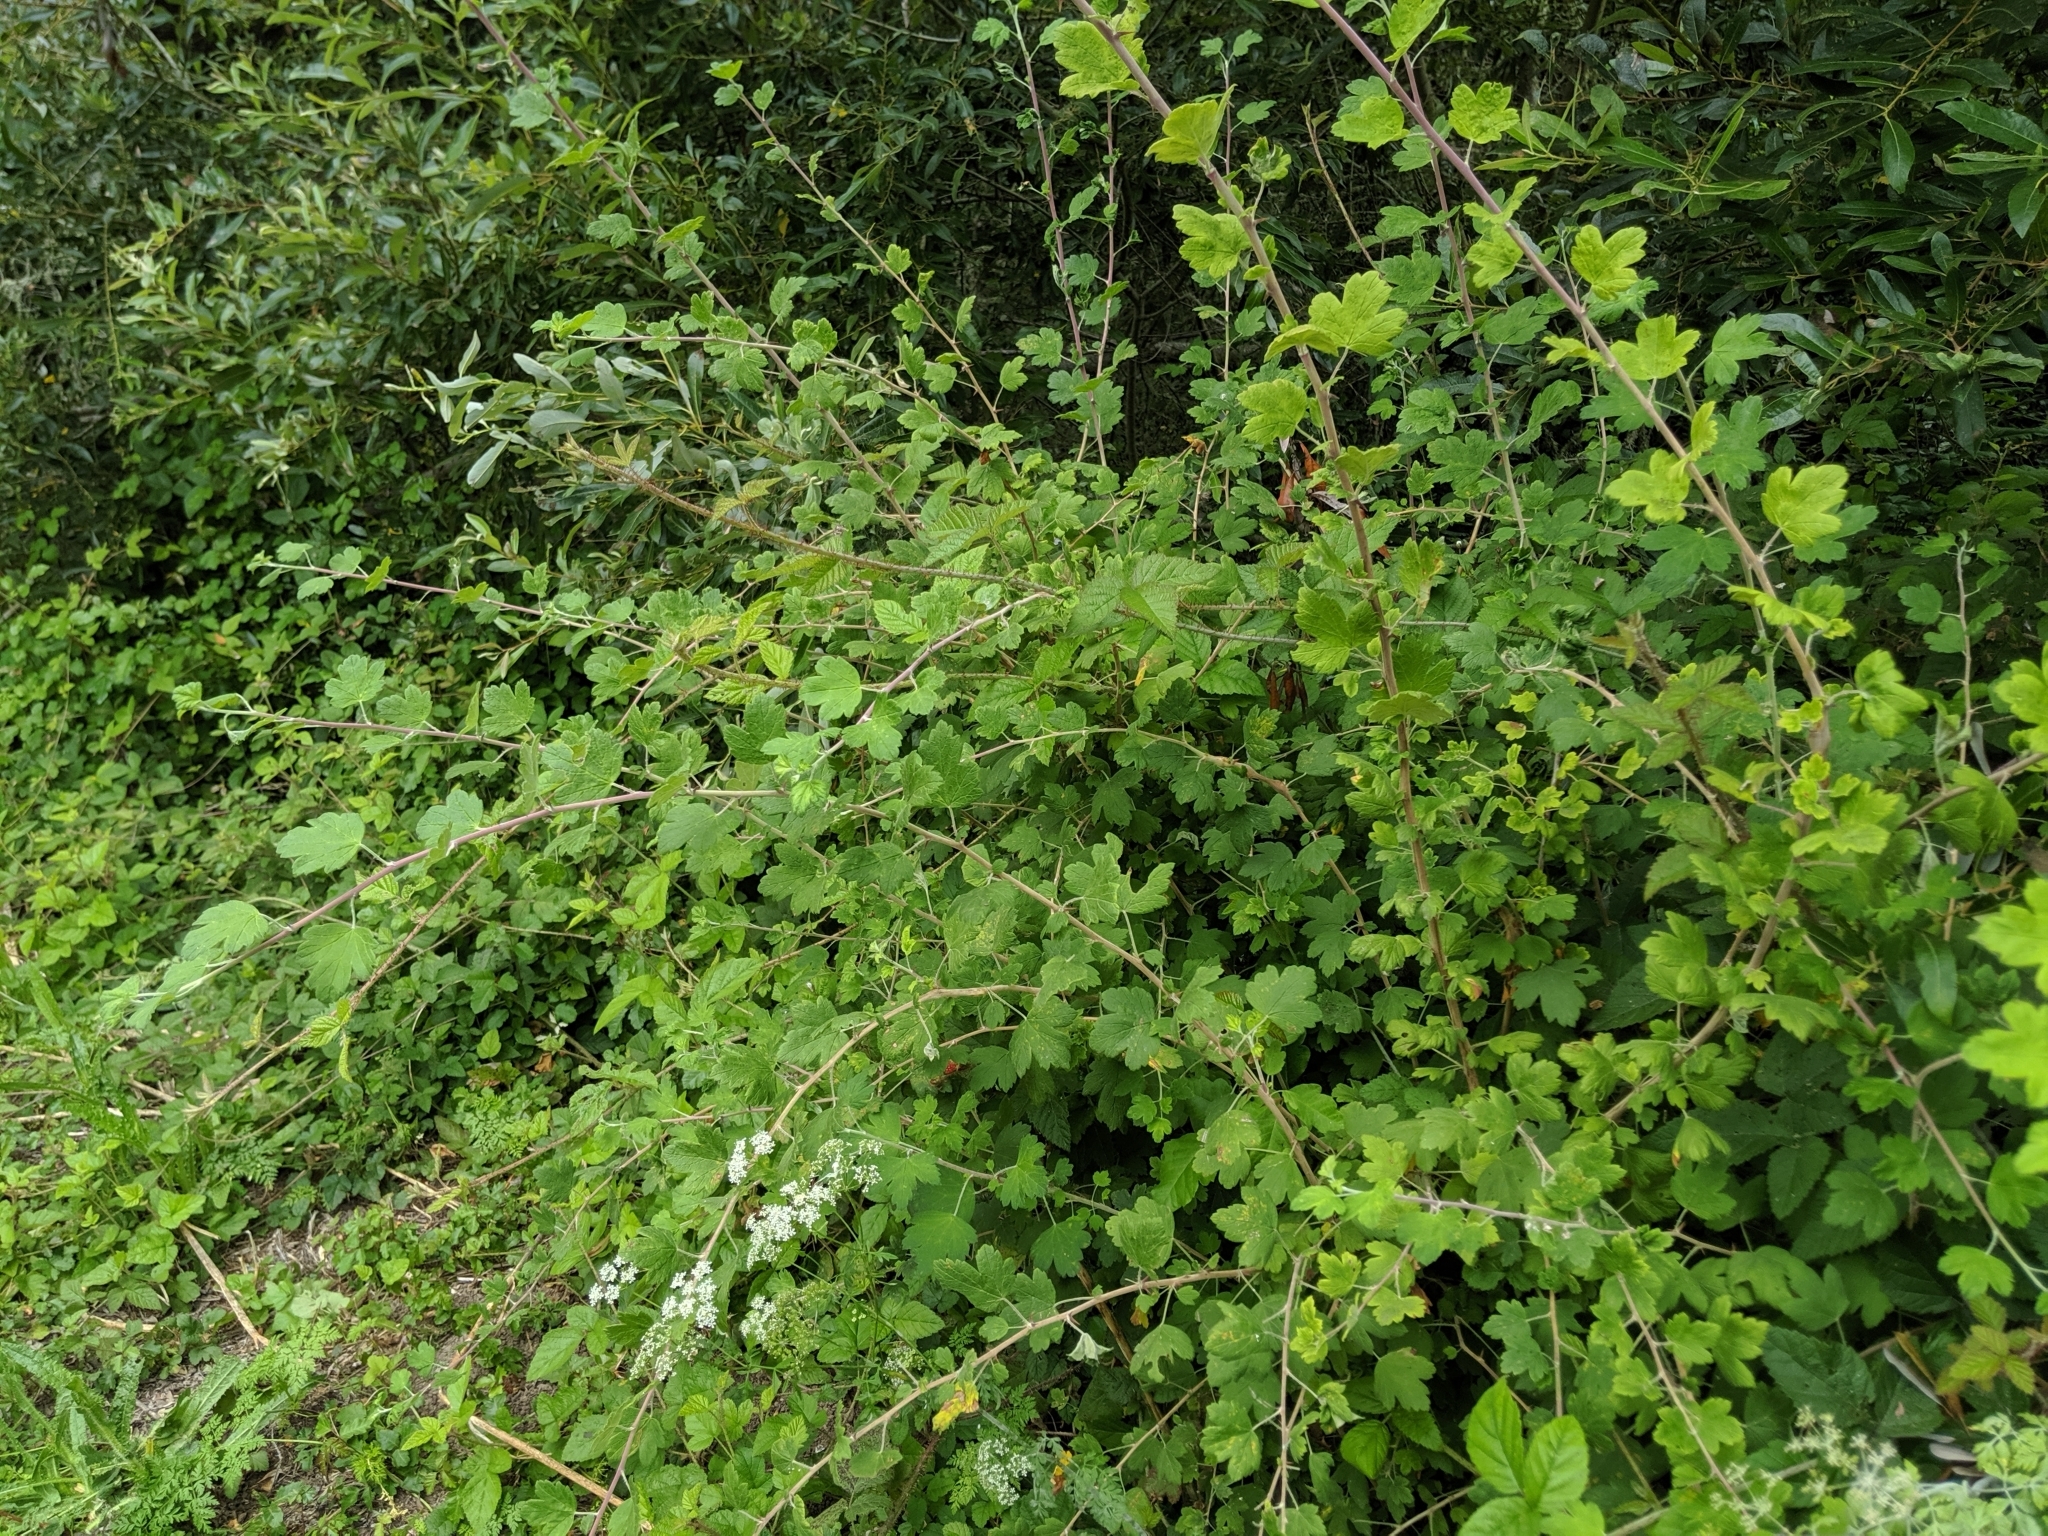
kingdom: Plantae
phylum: Tracheophyta
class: Magnoliopsida
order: Saxifragales
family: Grossulariaceae
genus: Ribes
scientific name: Ribes divaricatum
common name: Wild black gooseberry
